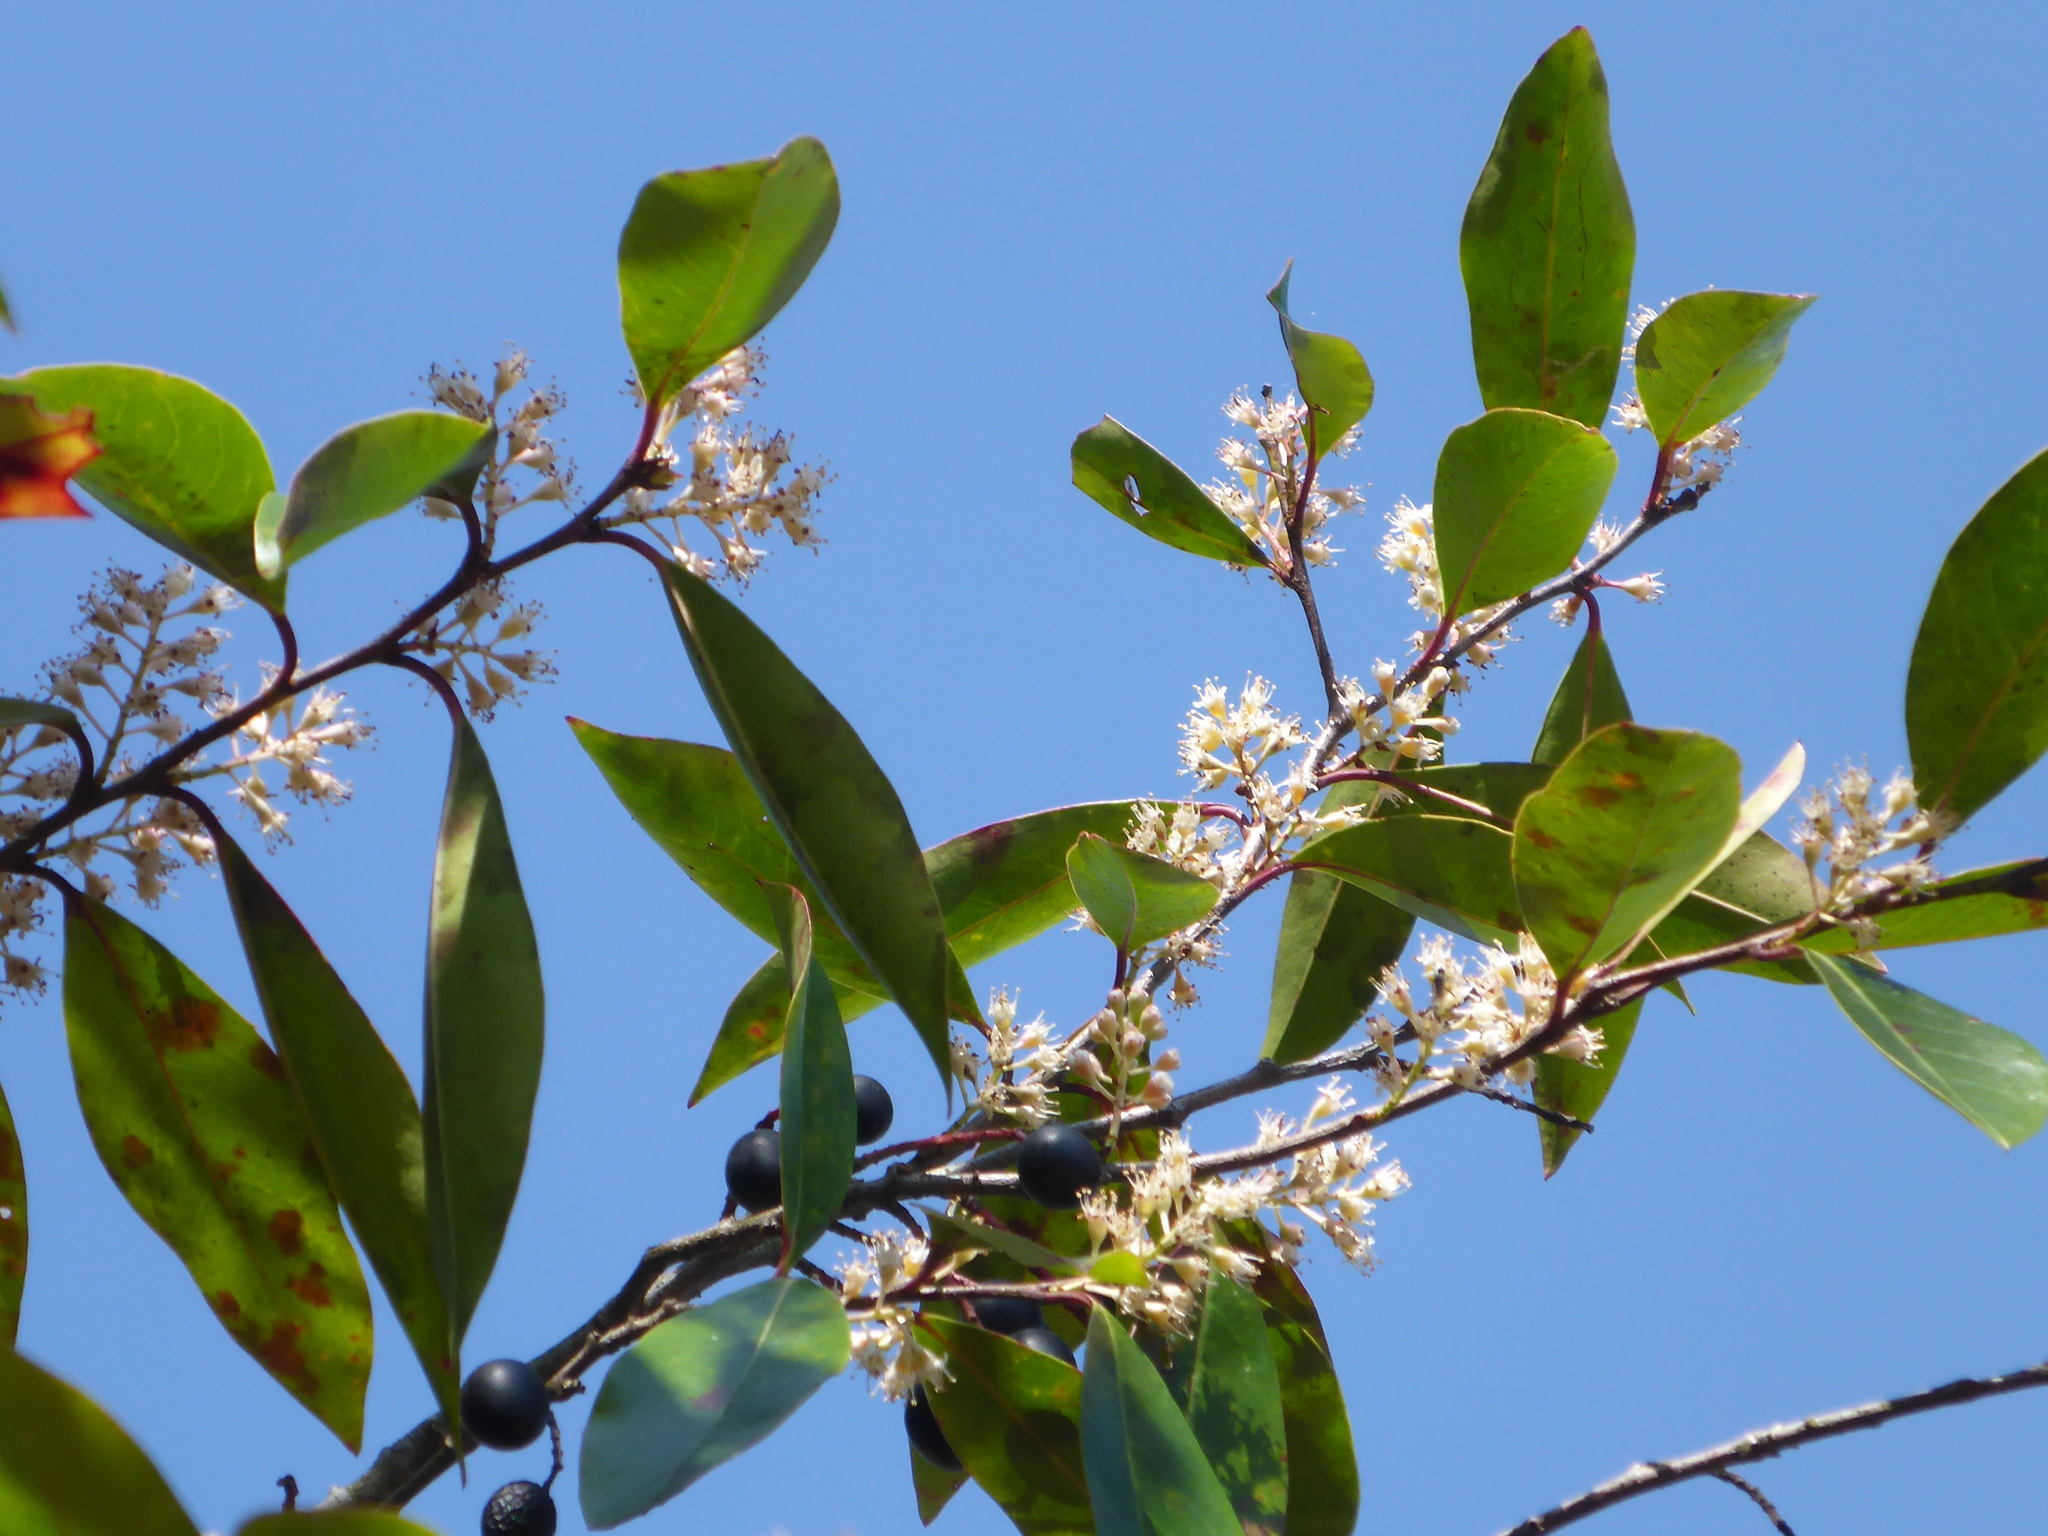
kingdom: Plantae
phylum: Tracheophyta
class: Magnoliopsida
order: Rosales
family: Rosaceae
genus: Prunus
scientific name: Prunus caroliniana
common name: Carolina laurel cherry
